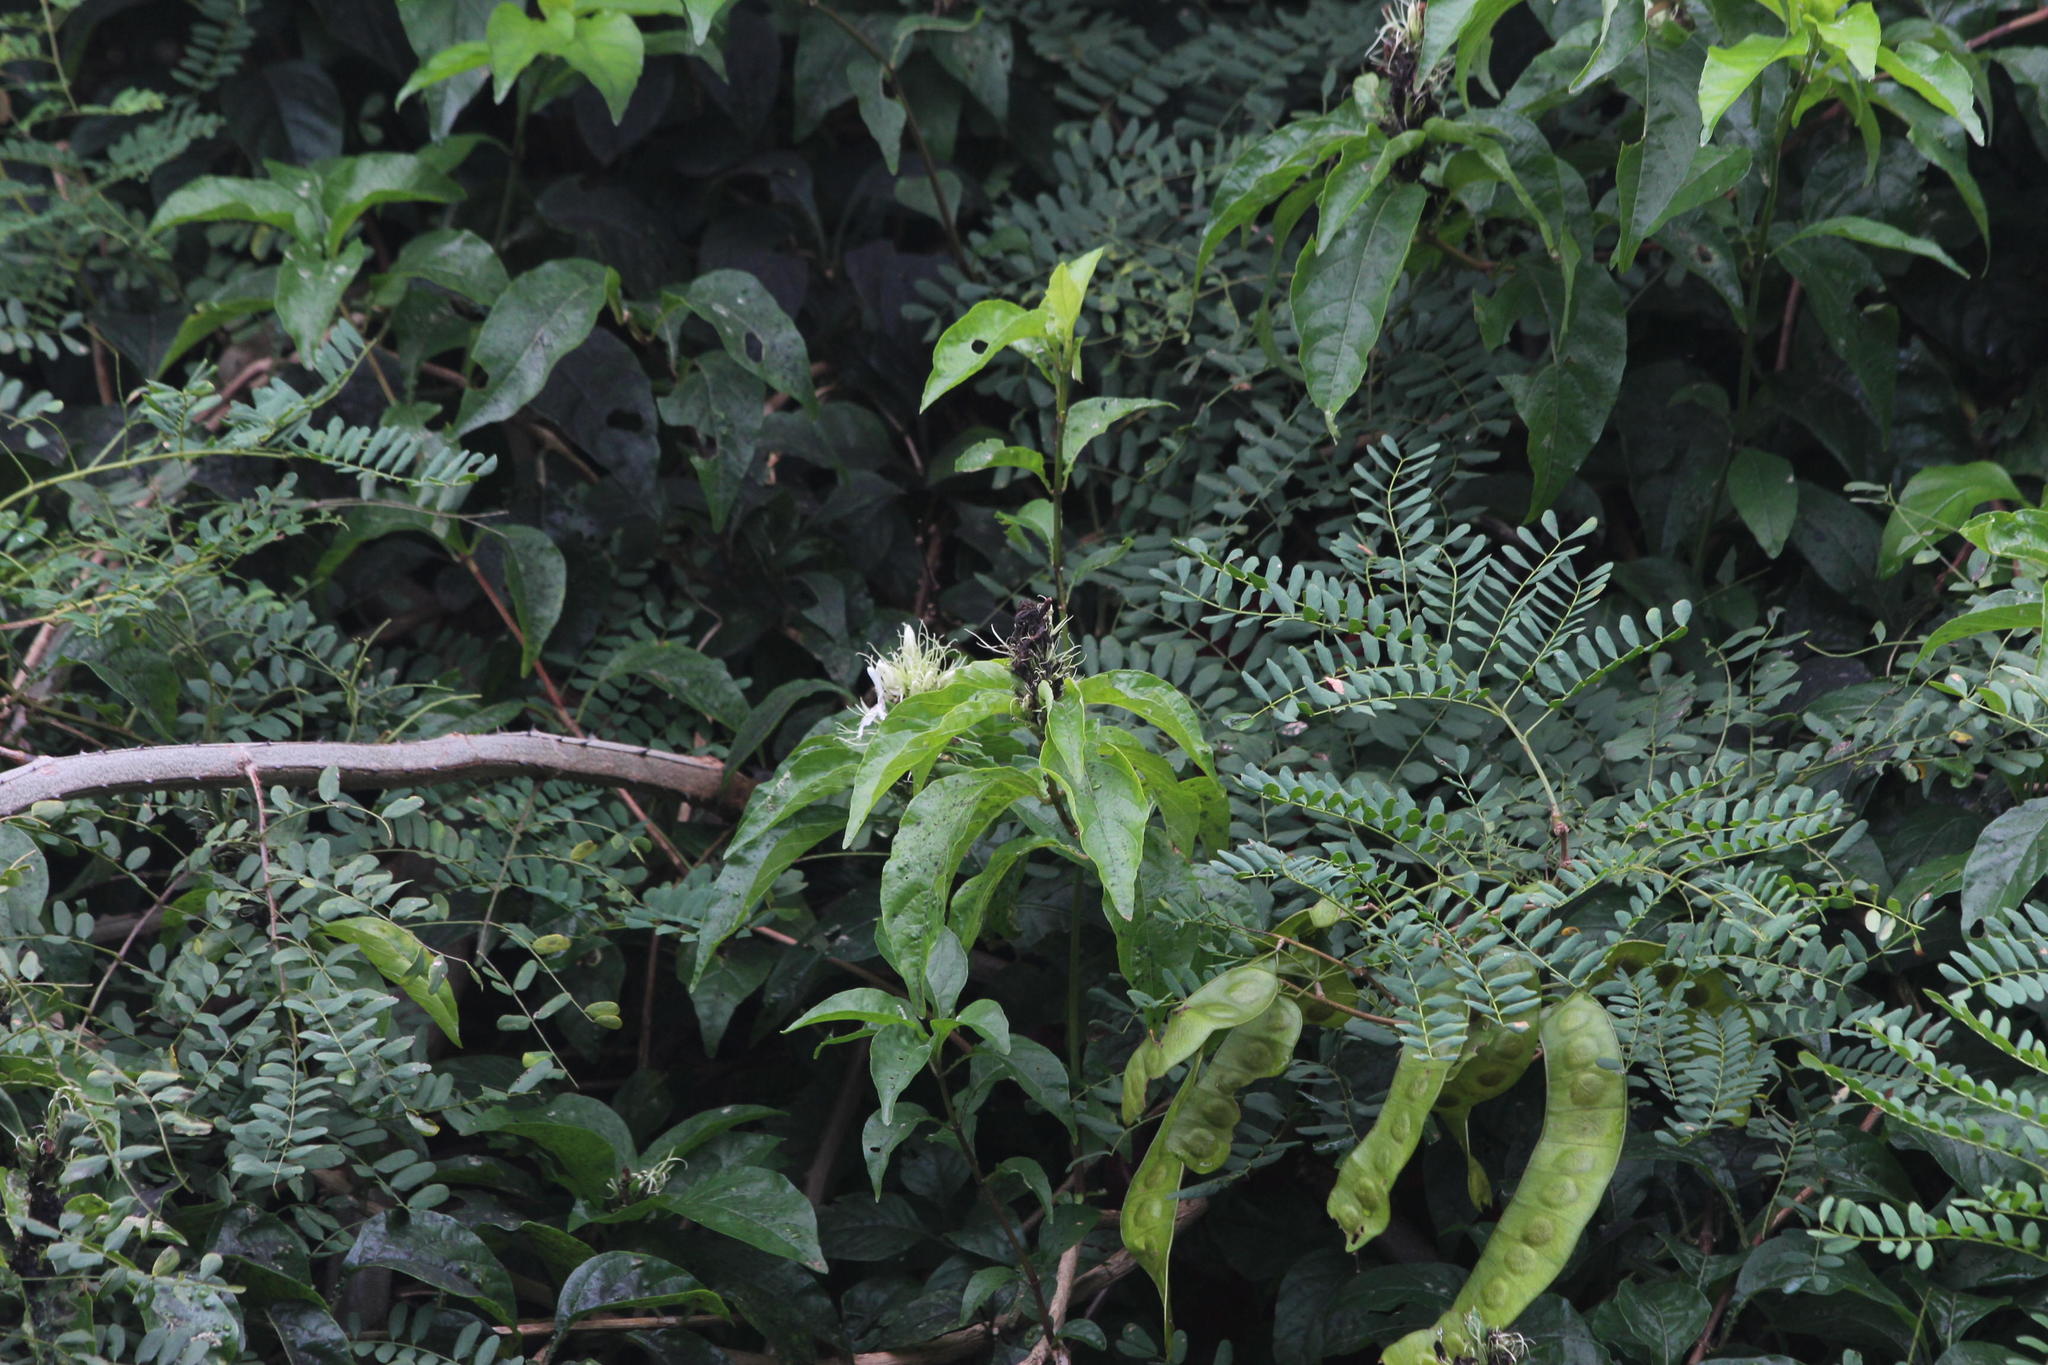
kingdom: Plantae
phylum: Tracheophyta
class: Magnoliopsida
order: Lamiales
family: Acanthaceae
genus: Ruttya
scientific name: Ruttya ovata
